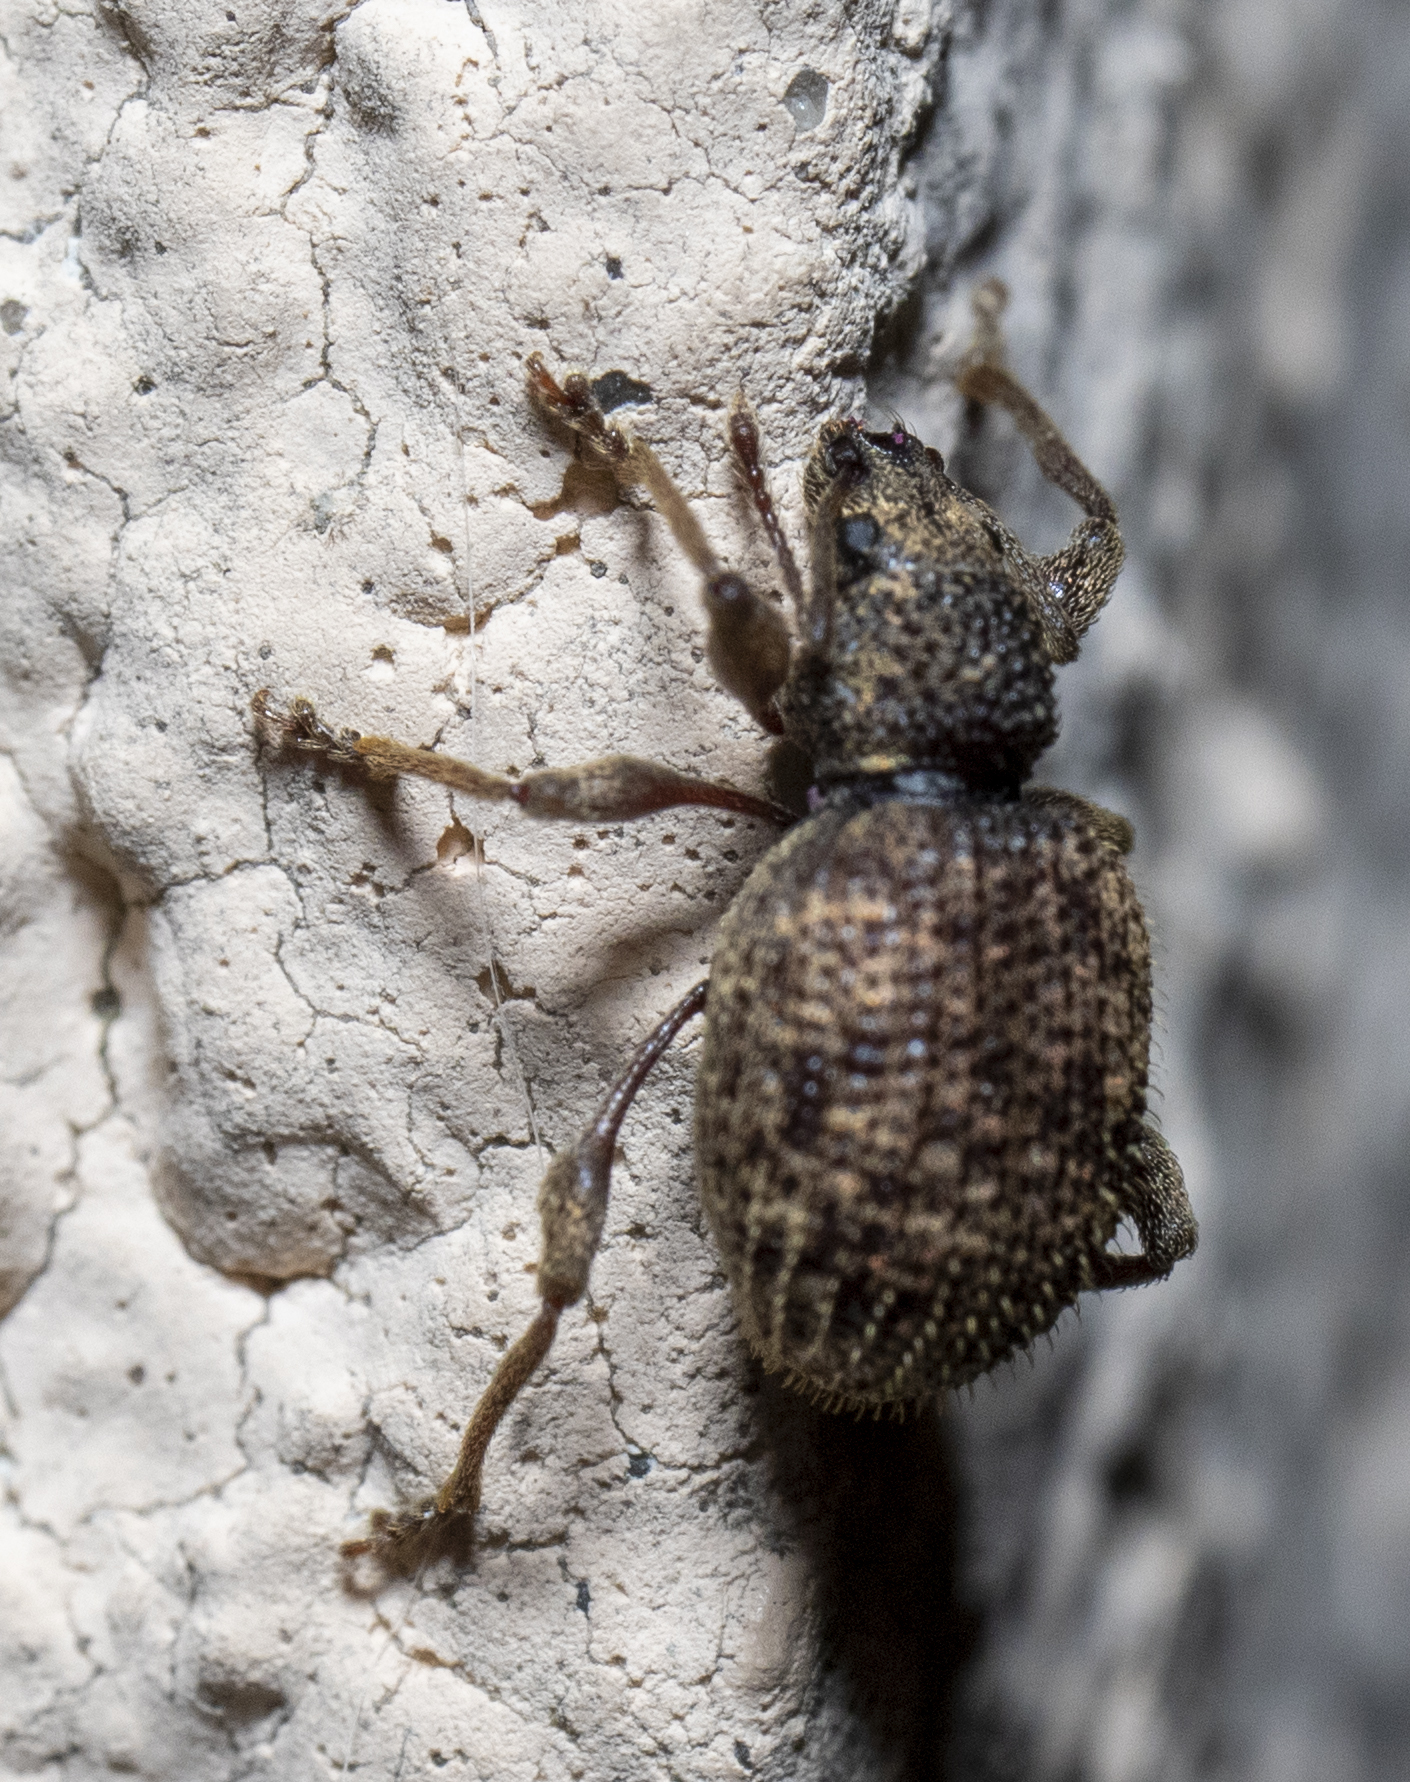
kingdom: Animalia
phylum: Arthropoda
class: Insecta
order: Coleoptera
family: Curculionidae
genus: Otiorhynchus
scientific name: Otiorhynchus crataegi
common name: Privet weevil
